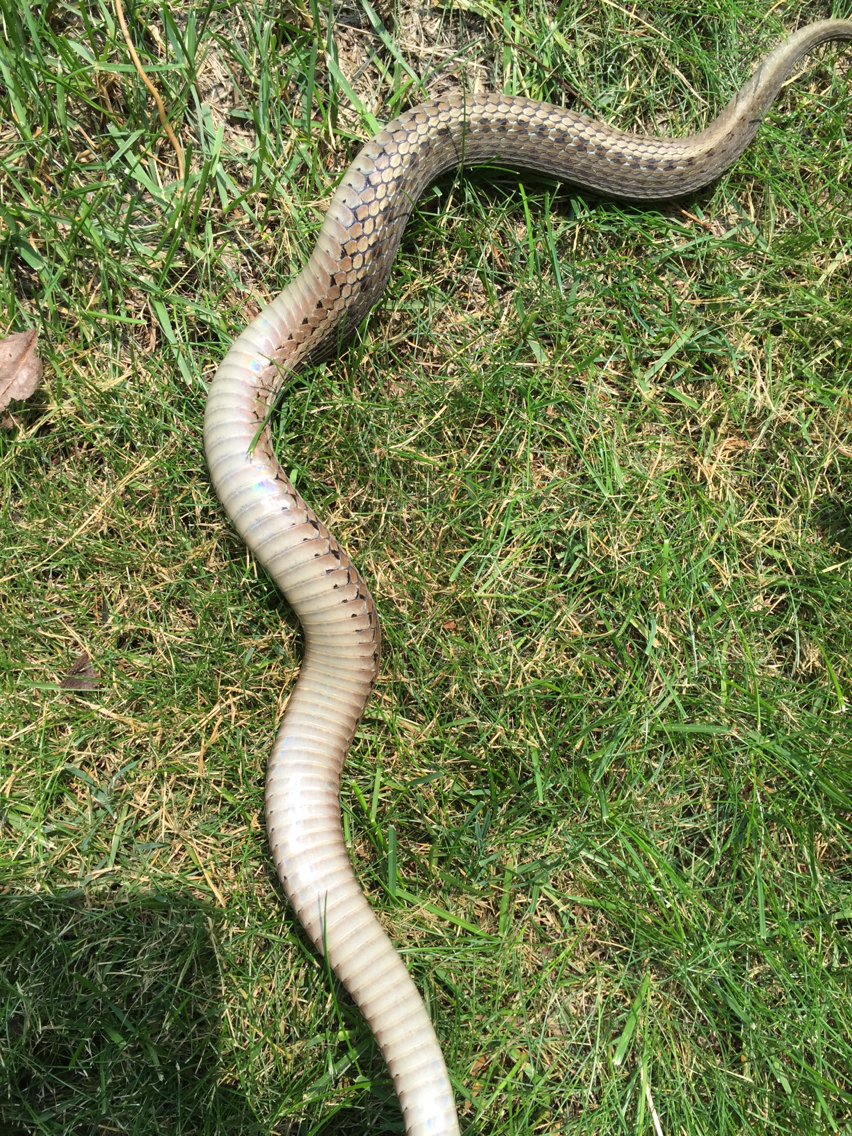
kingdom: Animalia
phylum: Chordata
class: Squamata
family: Colubridae
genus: Thamnophis
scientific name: Thamnophis sirtalis
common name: Common garter snake
